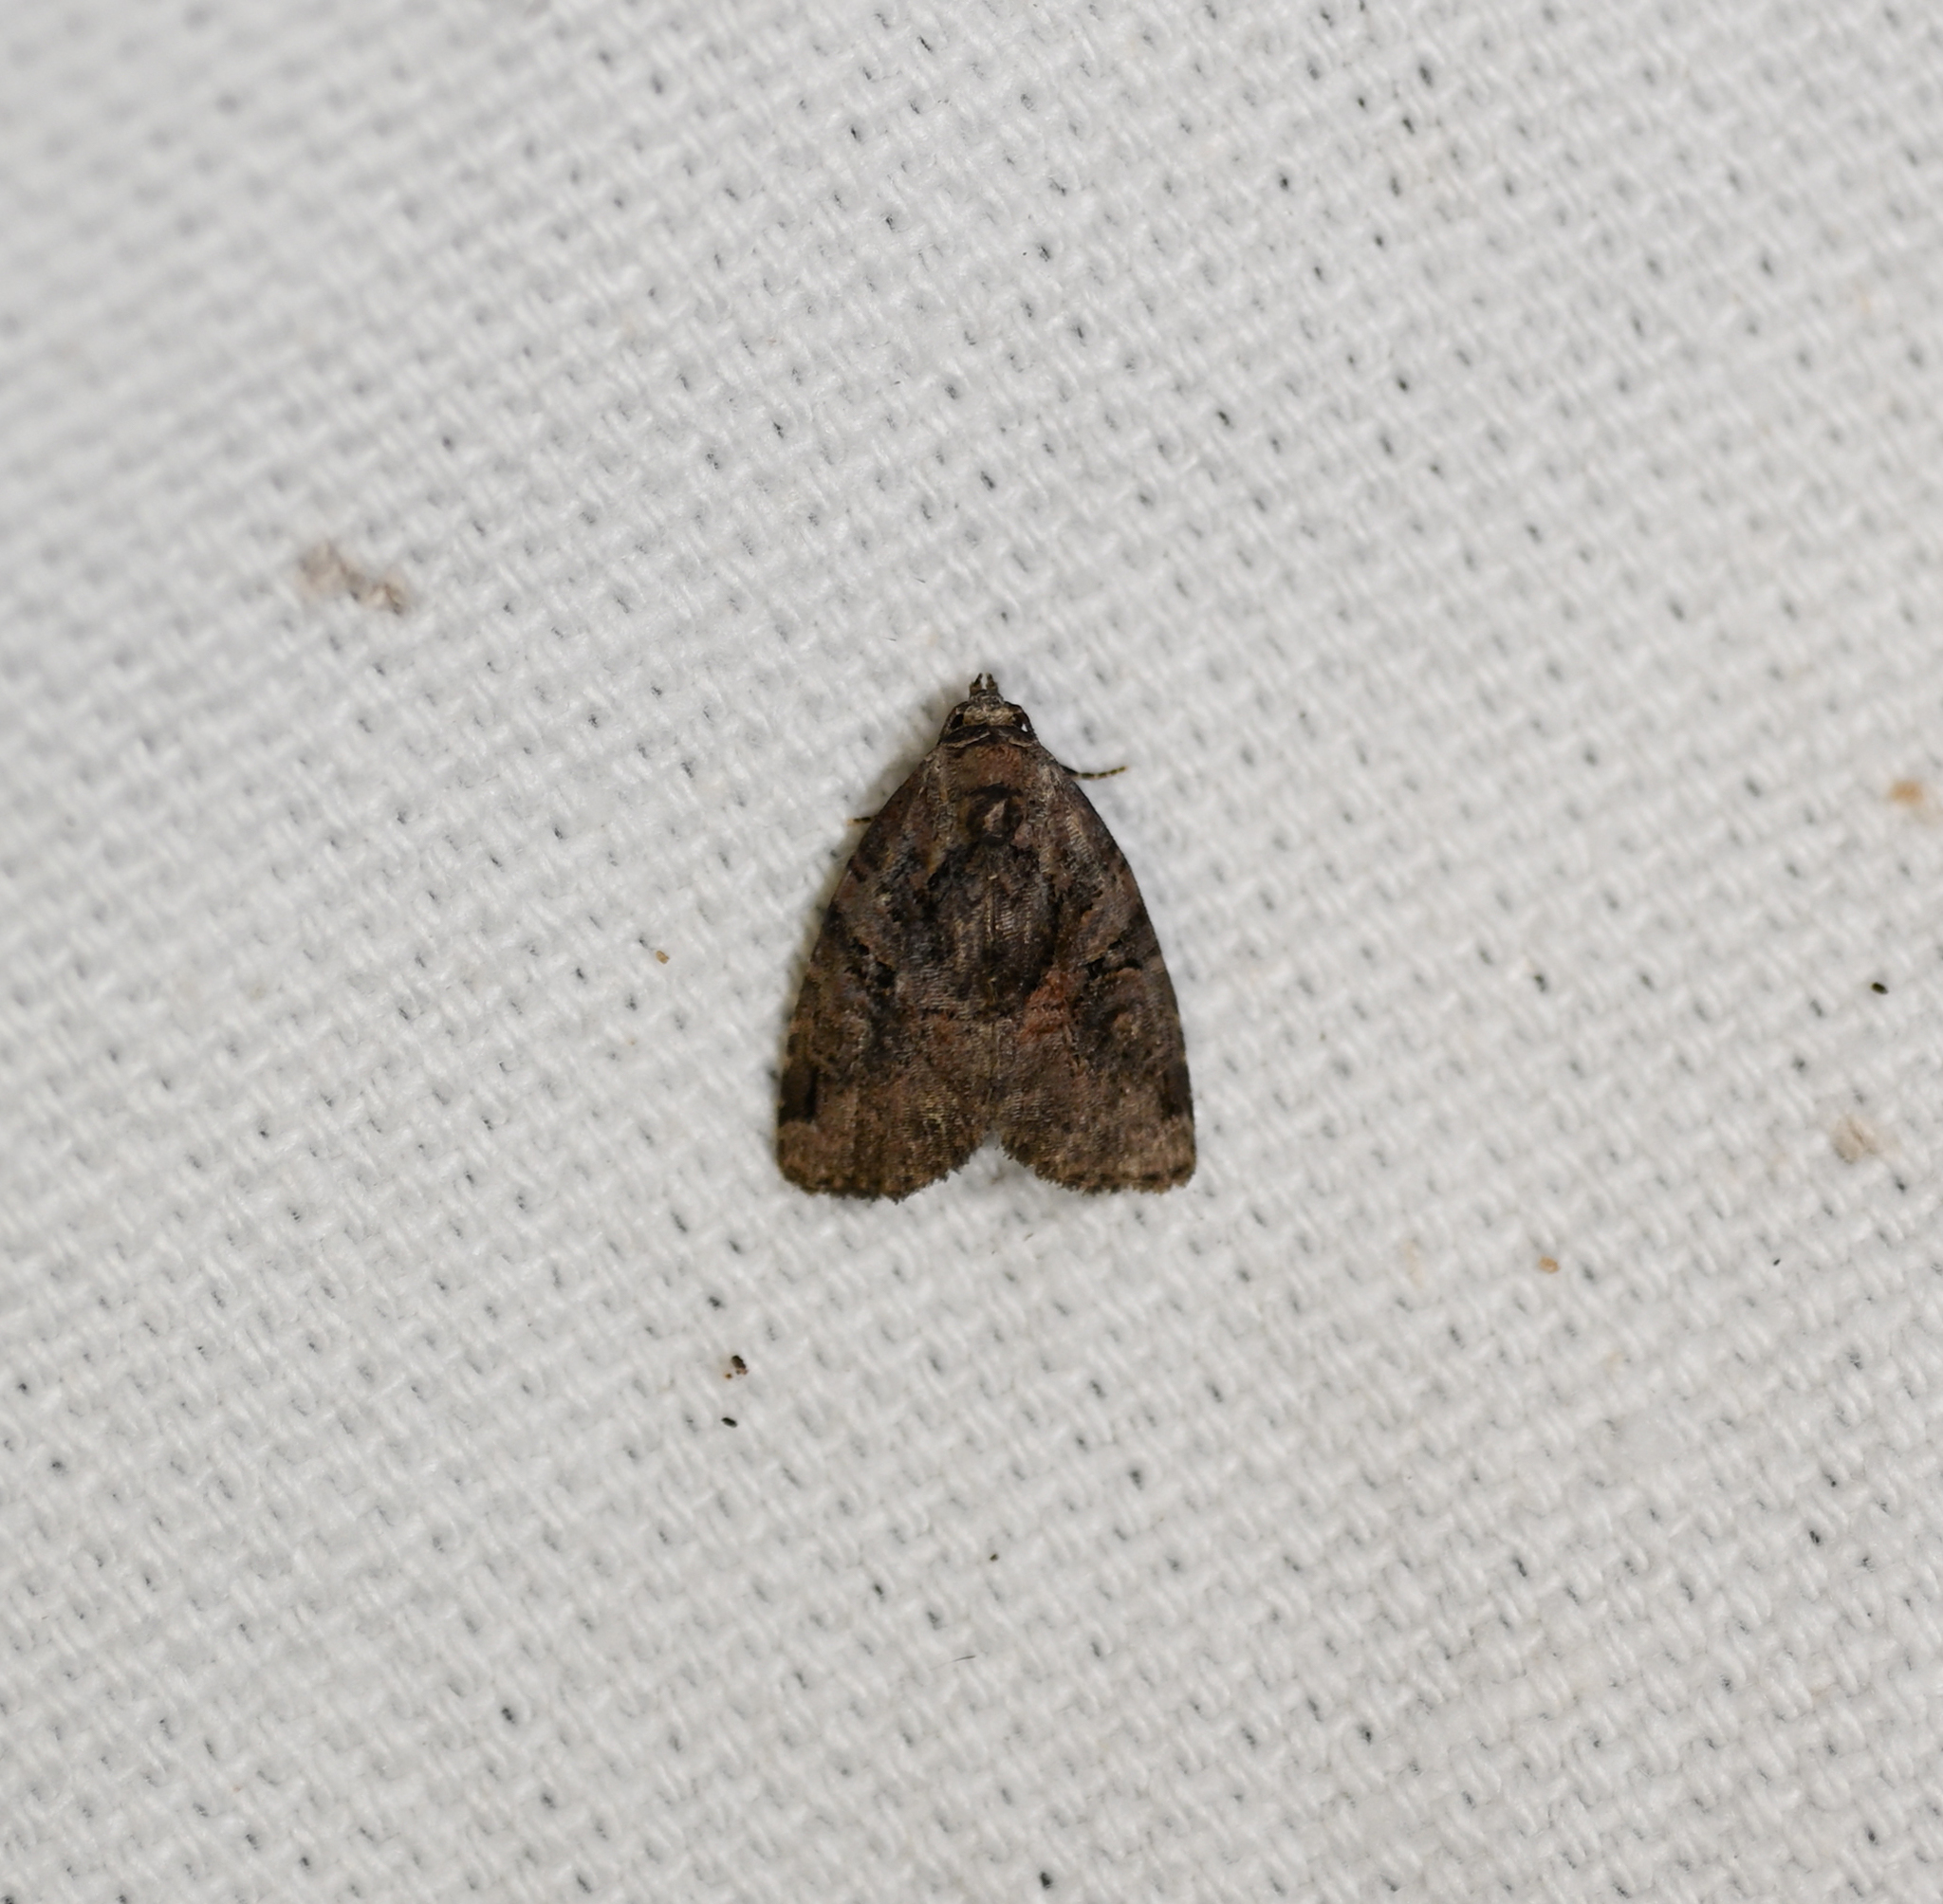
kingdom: Animalia
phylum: Arthropoda
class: Insecta
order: Lepidoptera
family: Noctuidae
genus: Pseudeustrotia
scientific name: Pseudeustrotia indeterminata
